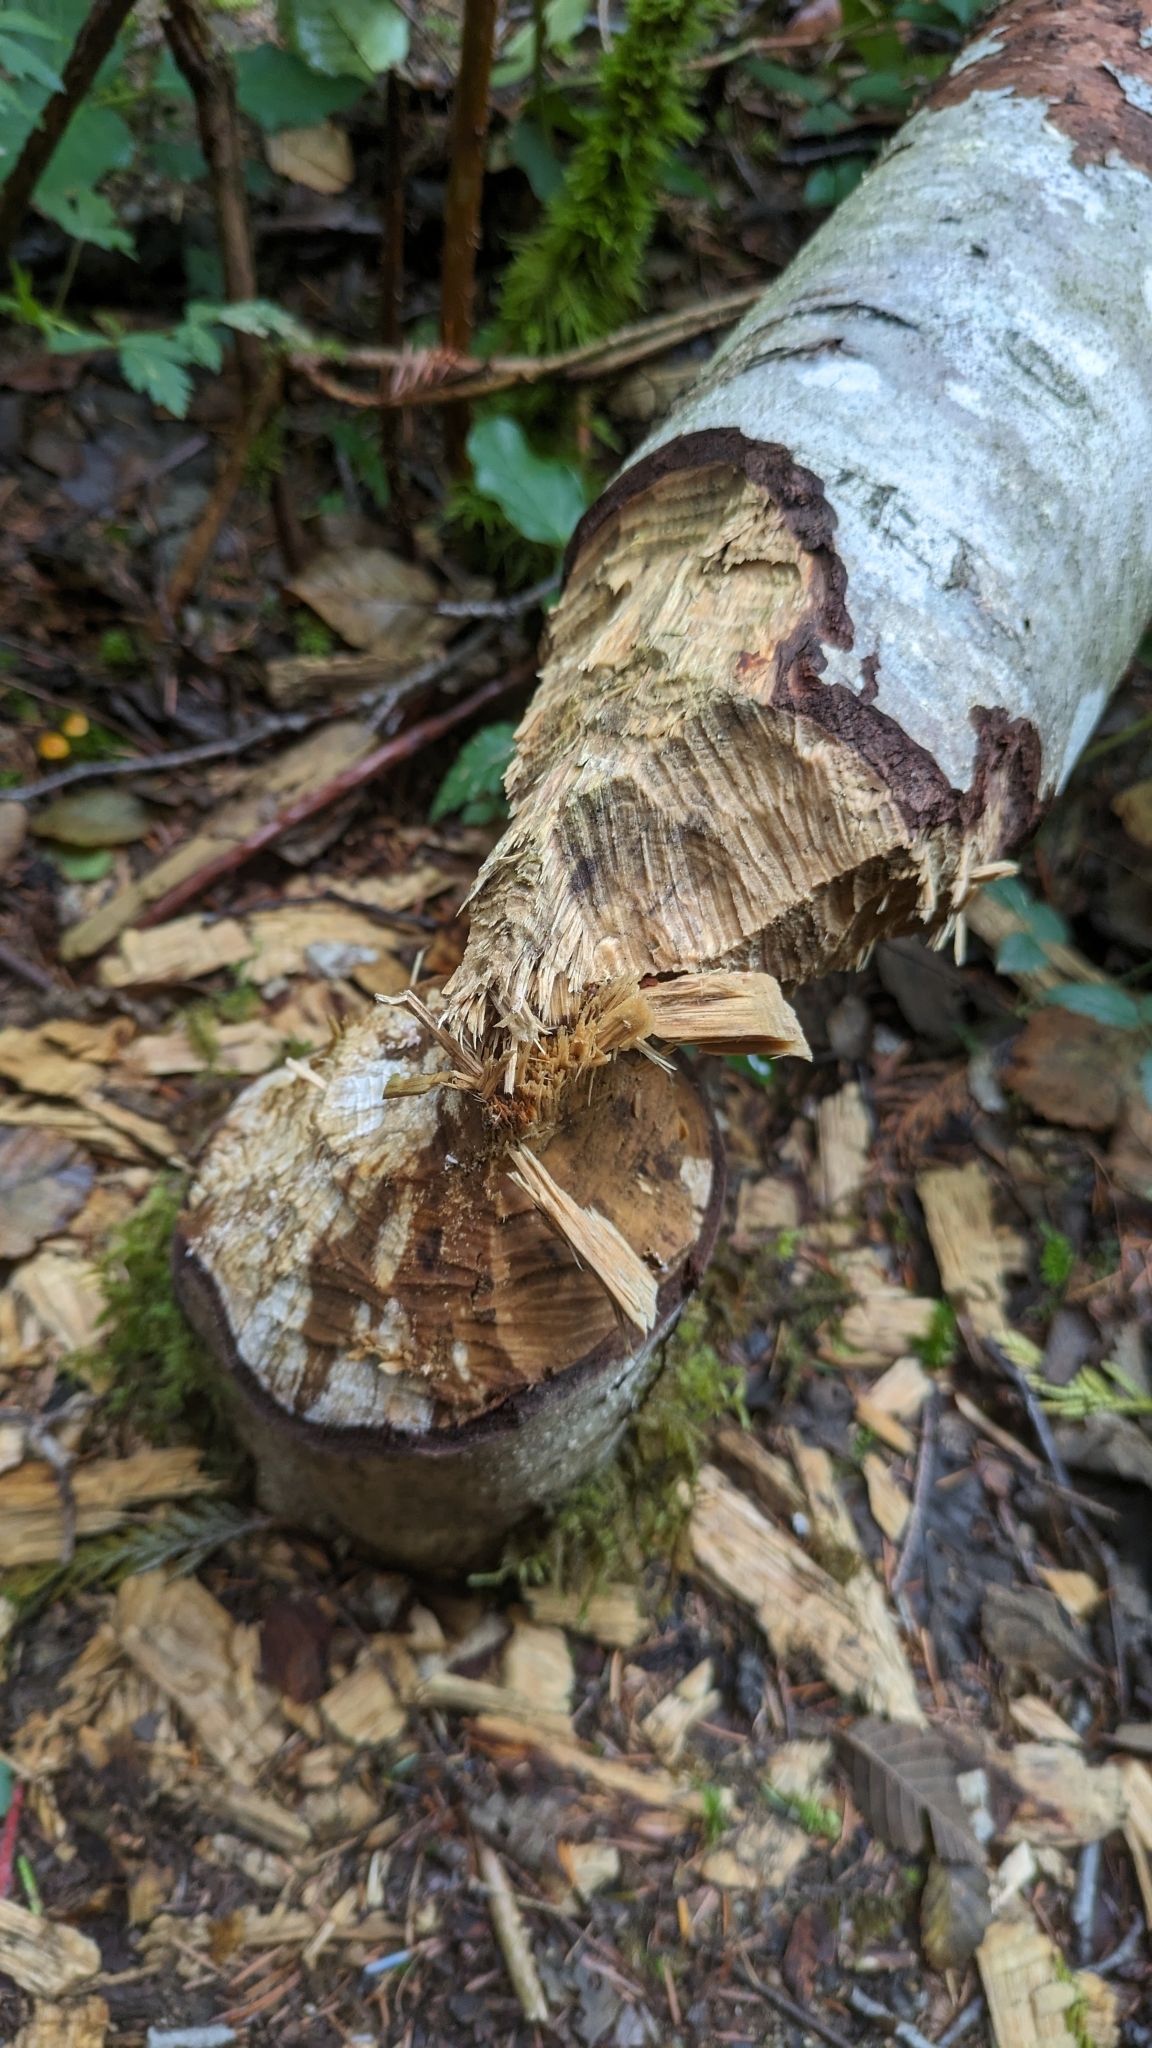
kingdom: Animalia
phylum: Chordata
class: Mammalia
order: Rodentia
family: Castoridae
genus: Castor
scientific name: Castor canadensis
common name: American beaver
